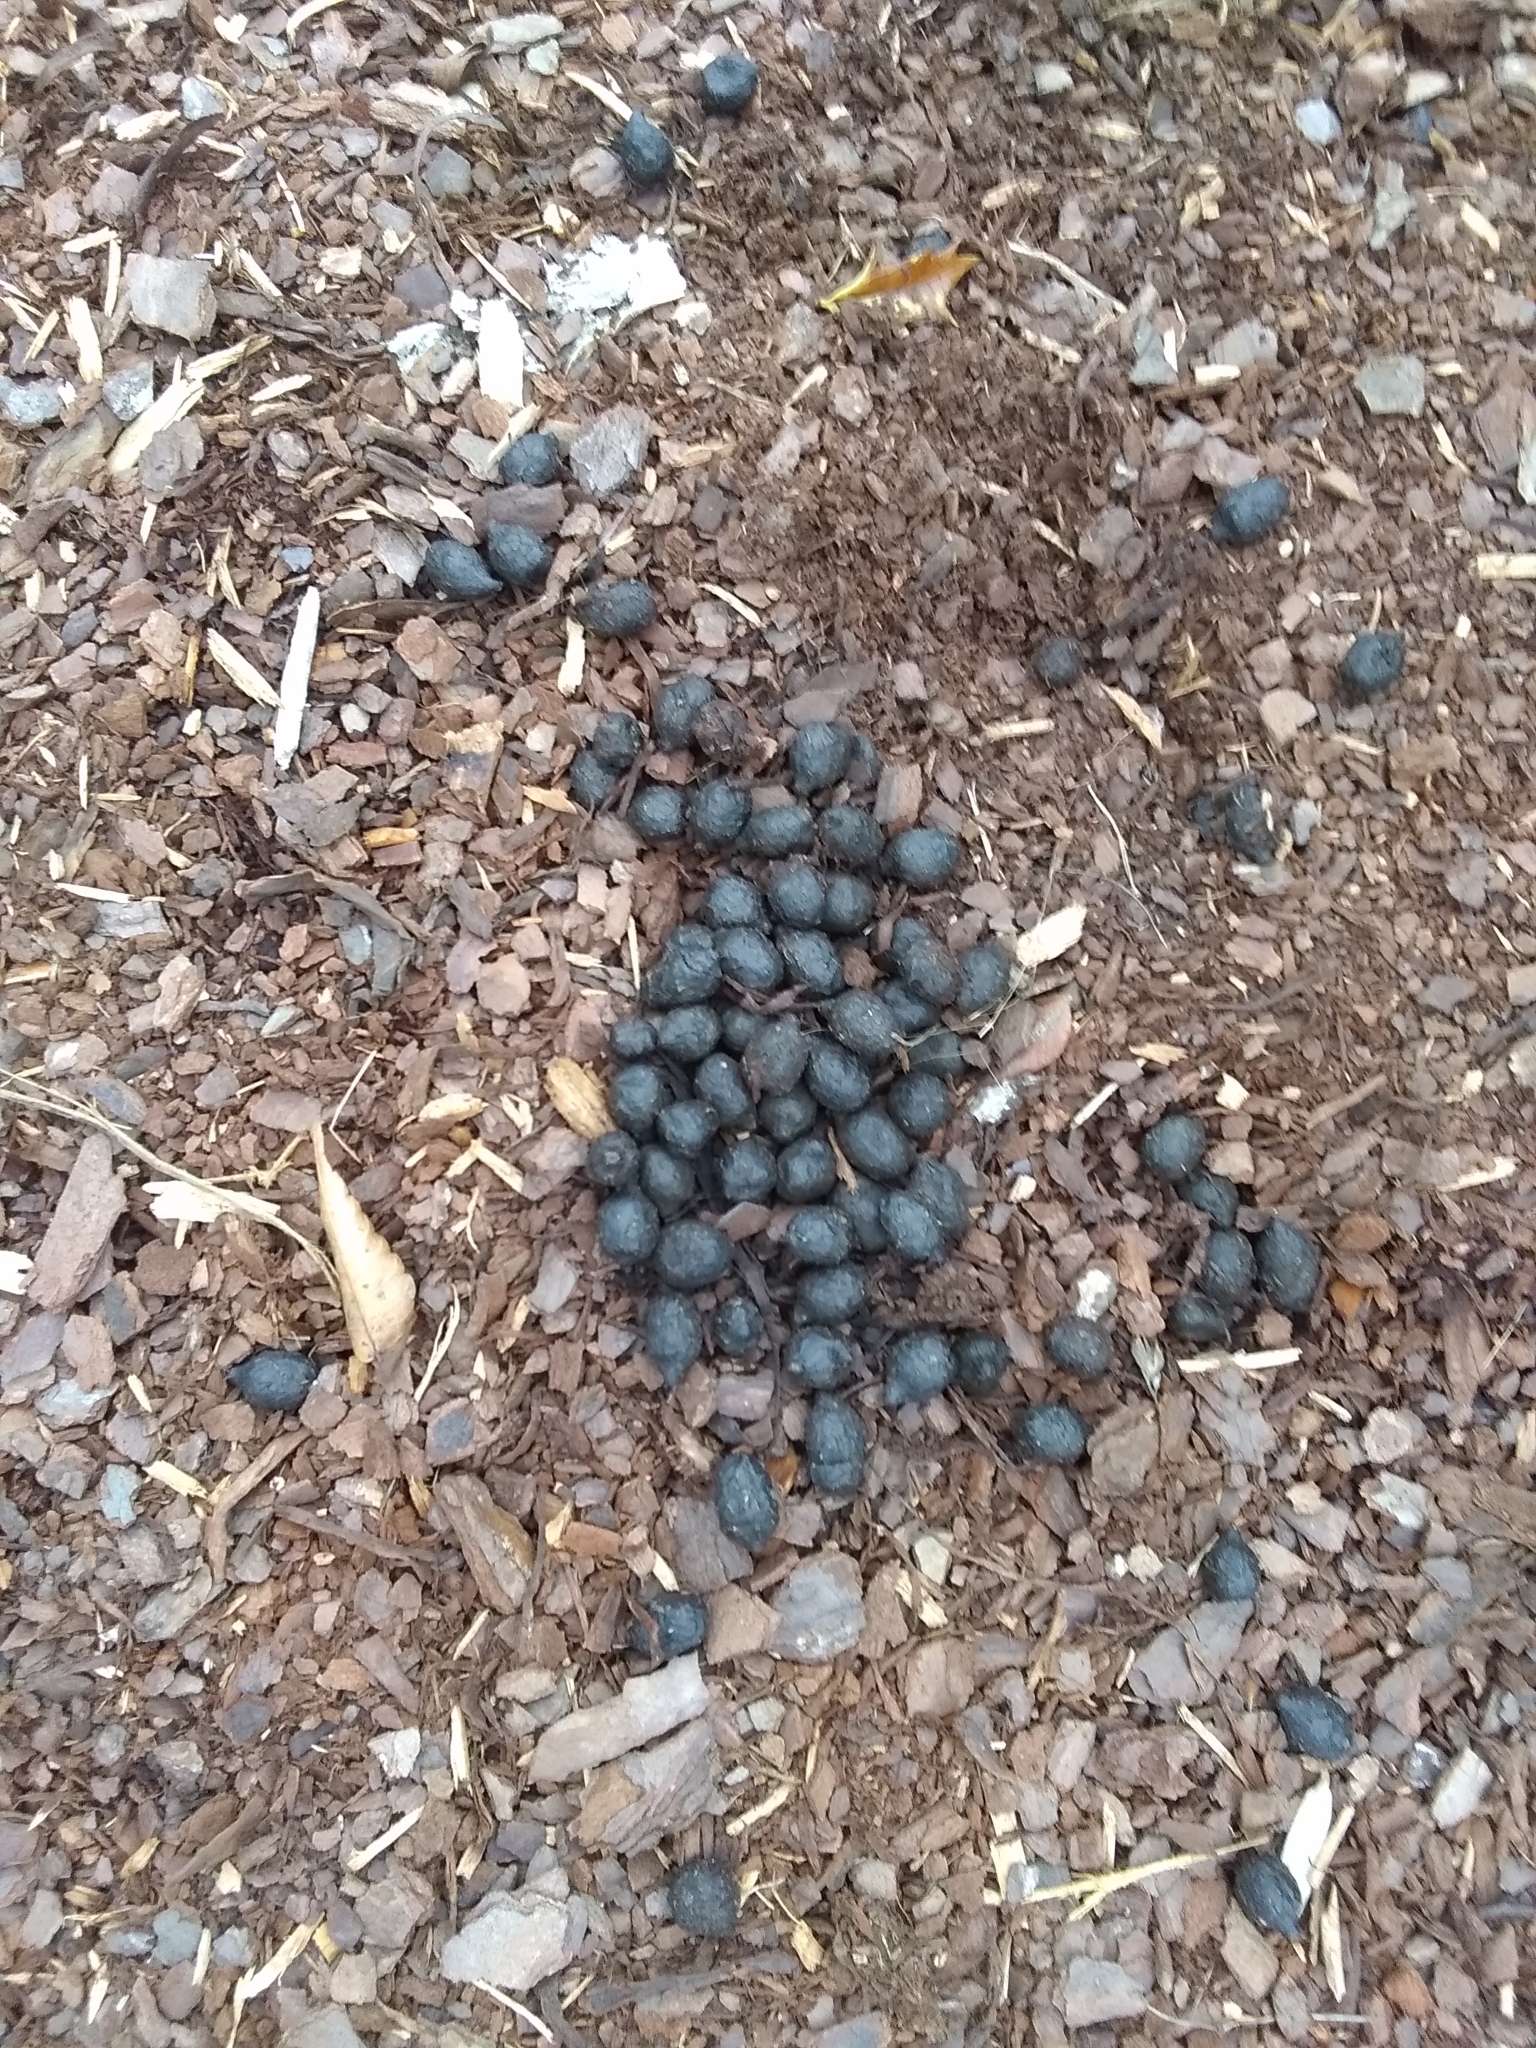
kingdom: Animalia
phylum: Chordata
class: Mammalia
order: Artiodactyla
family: Cervidae
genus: Odocoileus
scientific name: Odocoileus virginianus
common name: White-tailed deer
